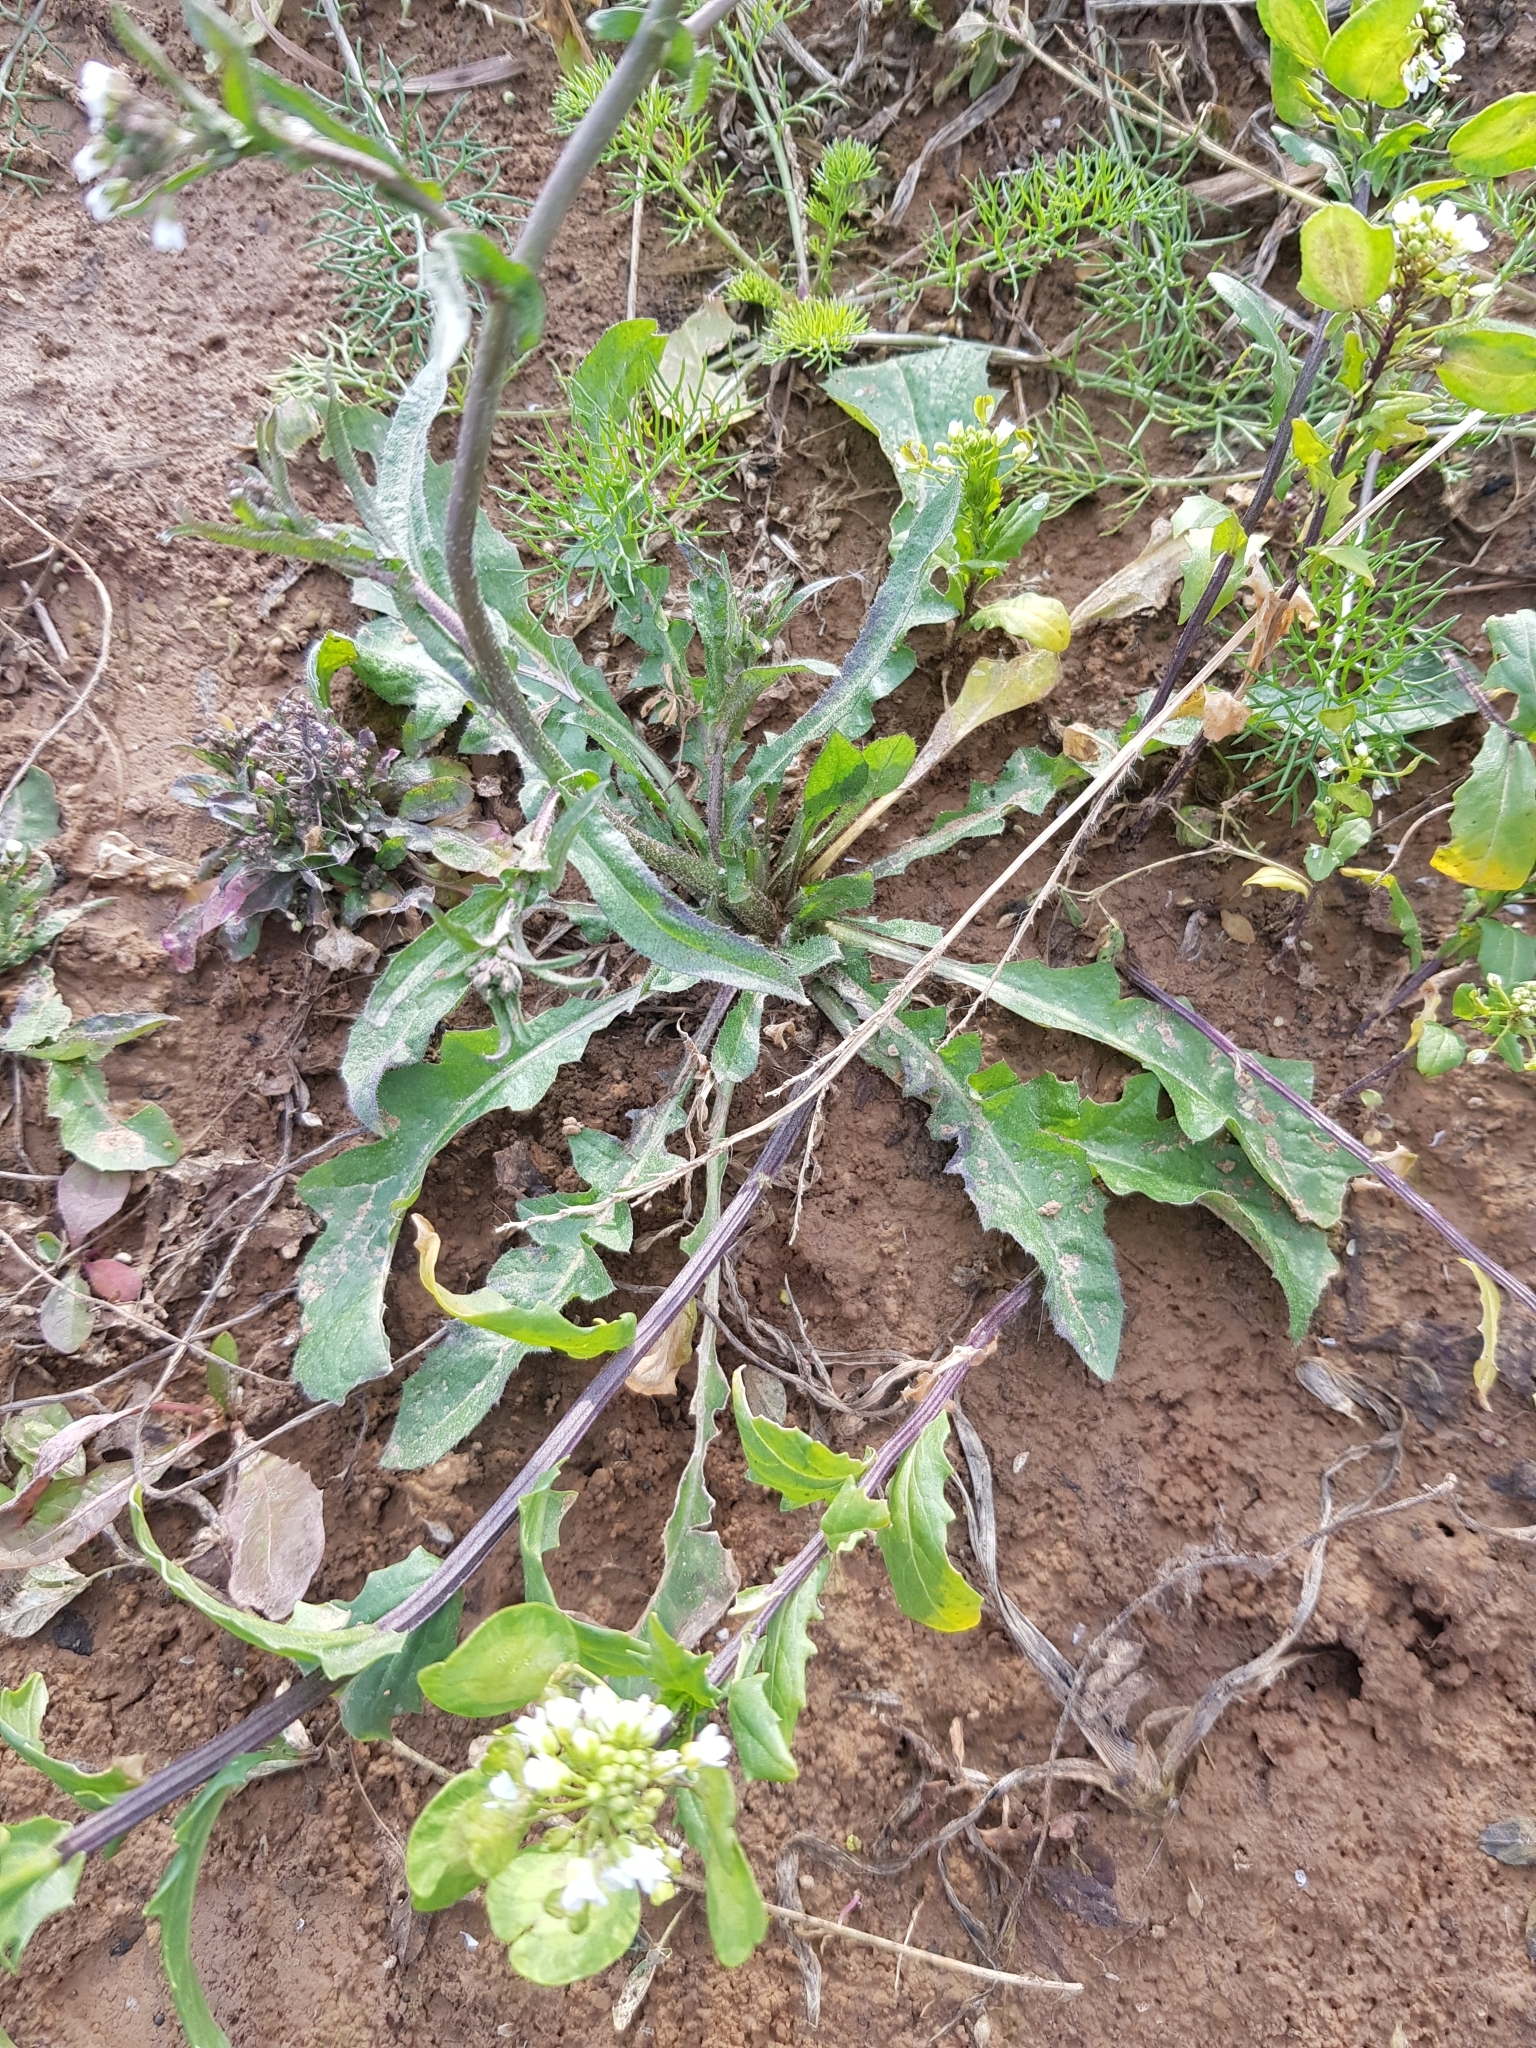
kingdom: Plantae
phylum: Tracheophyta
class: Magnoliopsida
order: Brassicales
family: Brassicaceae
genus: Capsella
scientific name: Capsella bursa-pastoris
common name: Shepherd's purse
